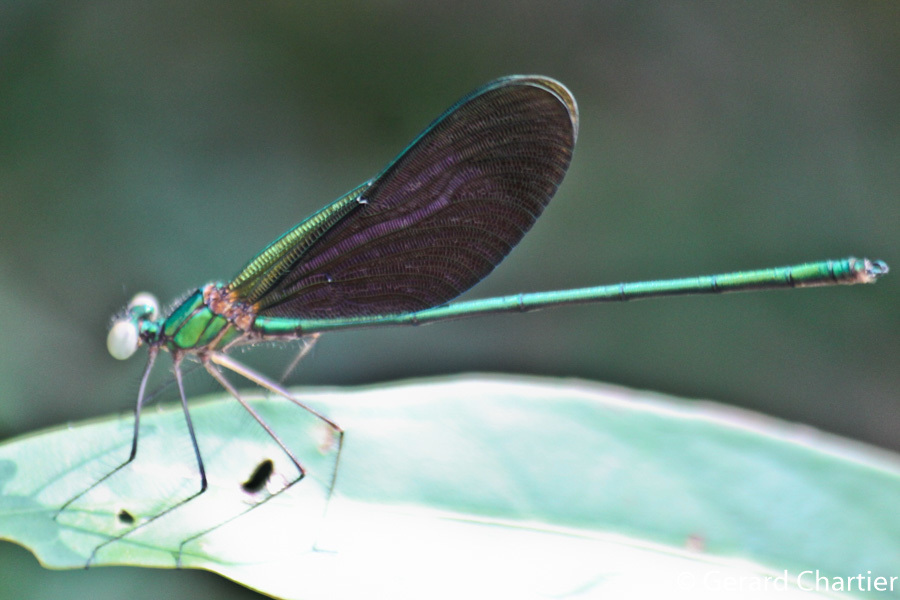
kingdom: Animalia
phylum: Arthropoda
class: Insecta
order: Odonata
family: Calopterygidae
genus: Neurobasis
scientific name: Neurobasis chinensis
